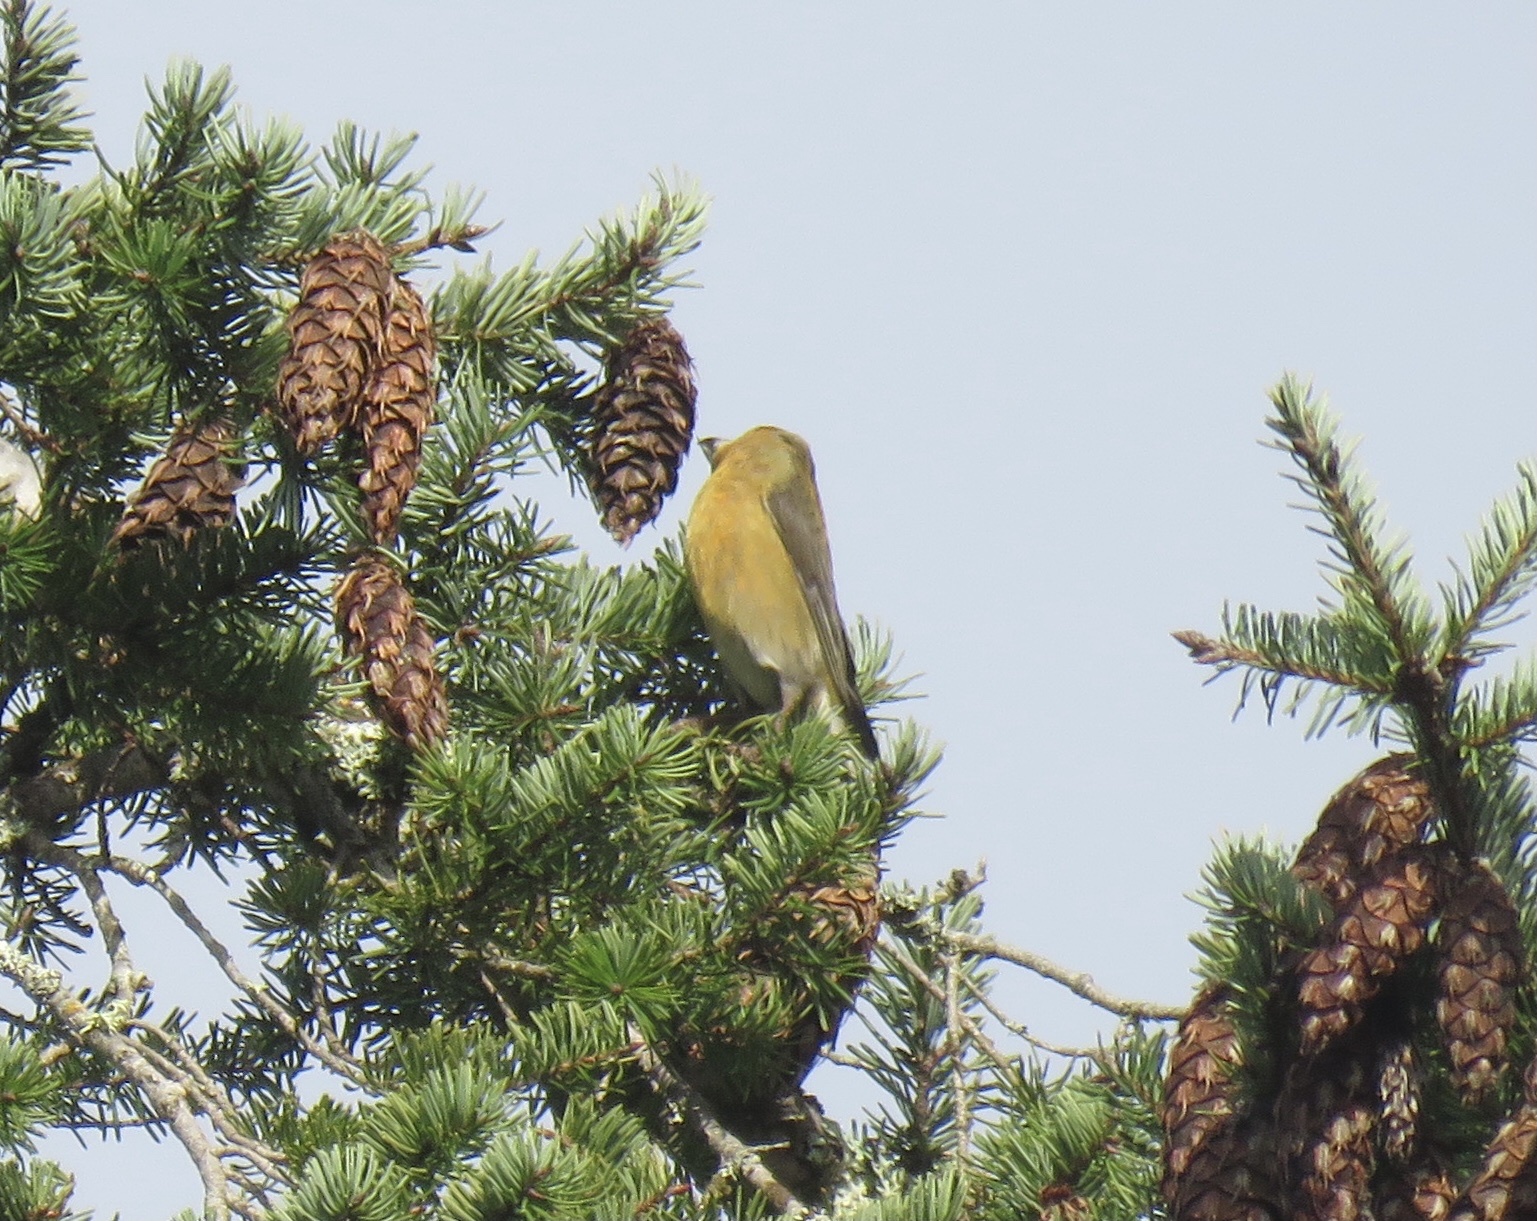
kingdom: Animalia
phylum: Chordata
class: Aves
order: Passeriformes
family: Fringillidae
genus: Loxia
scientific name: Loxia curvirostra
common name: Red crossbill
